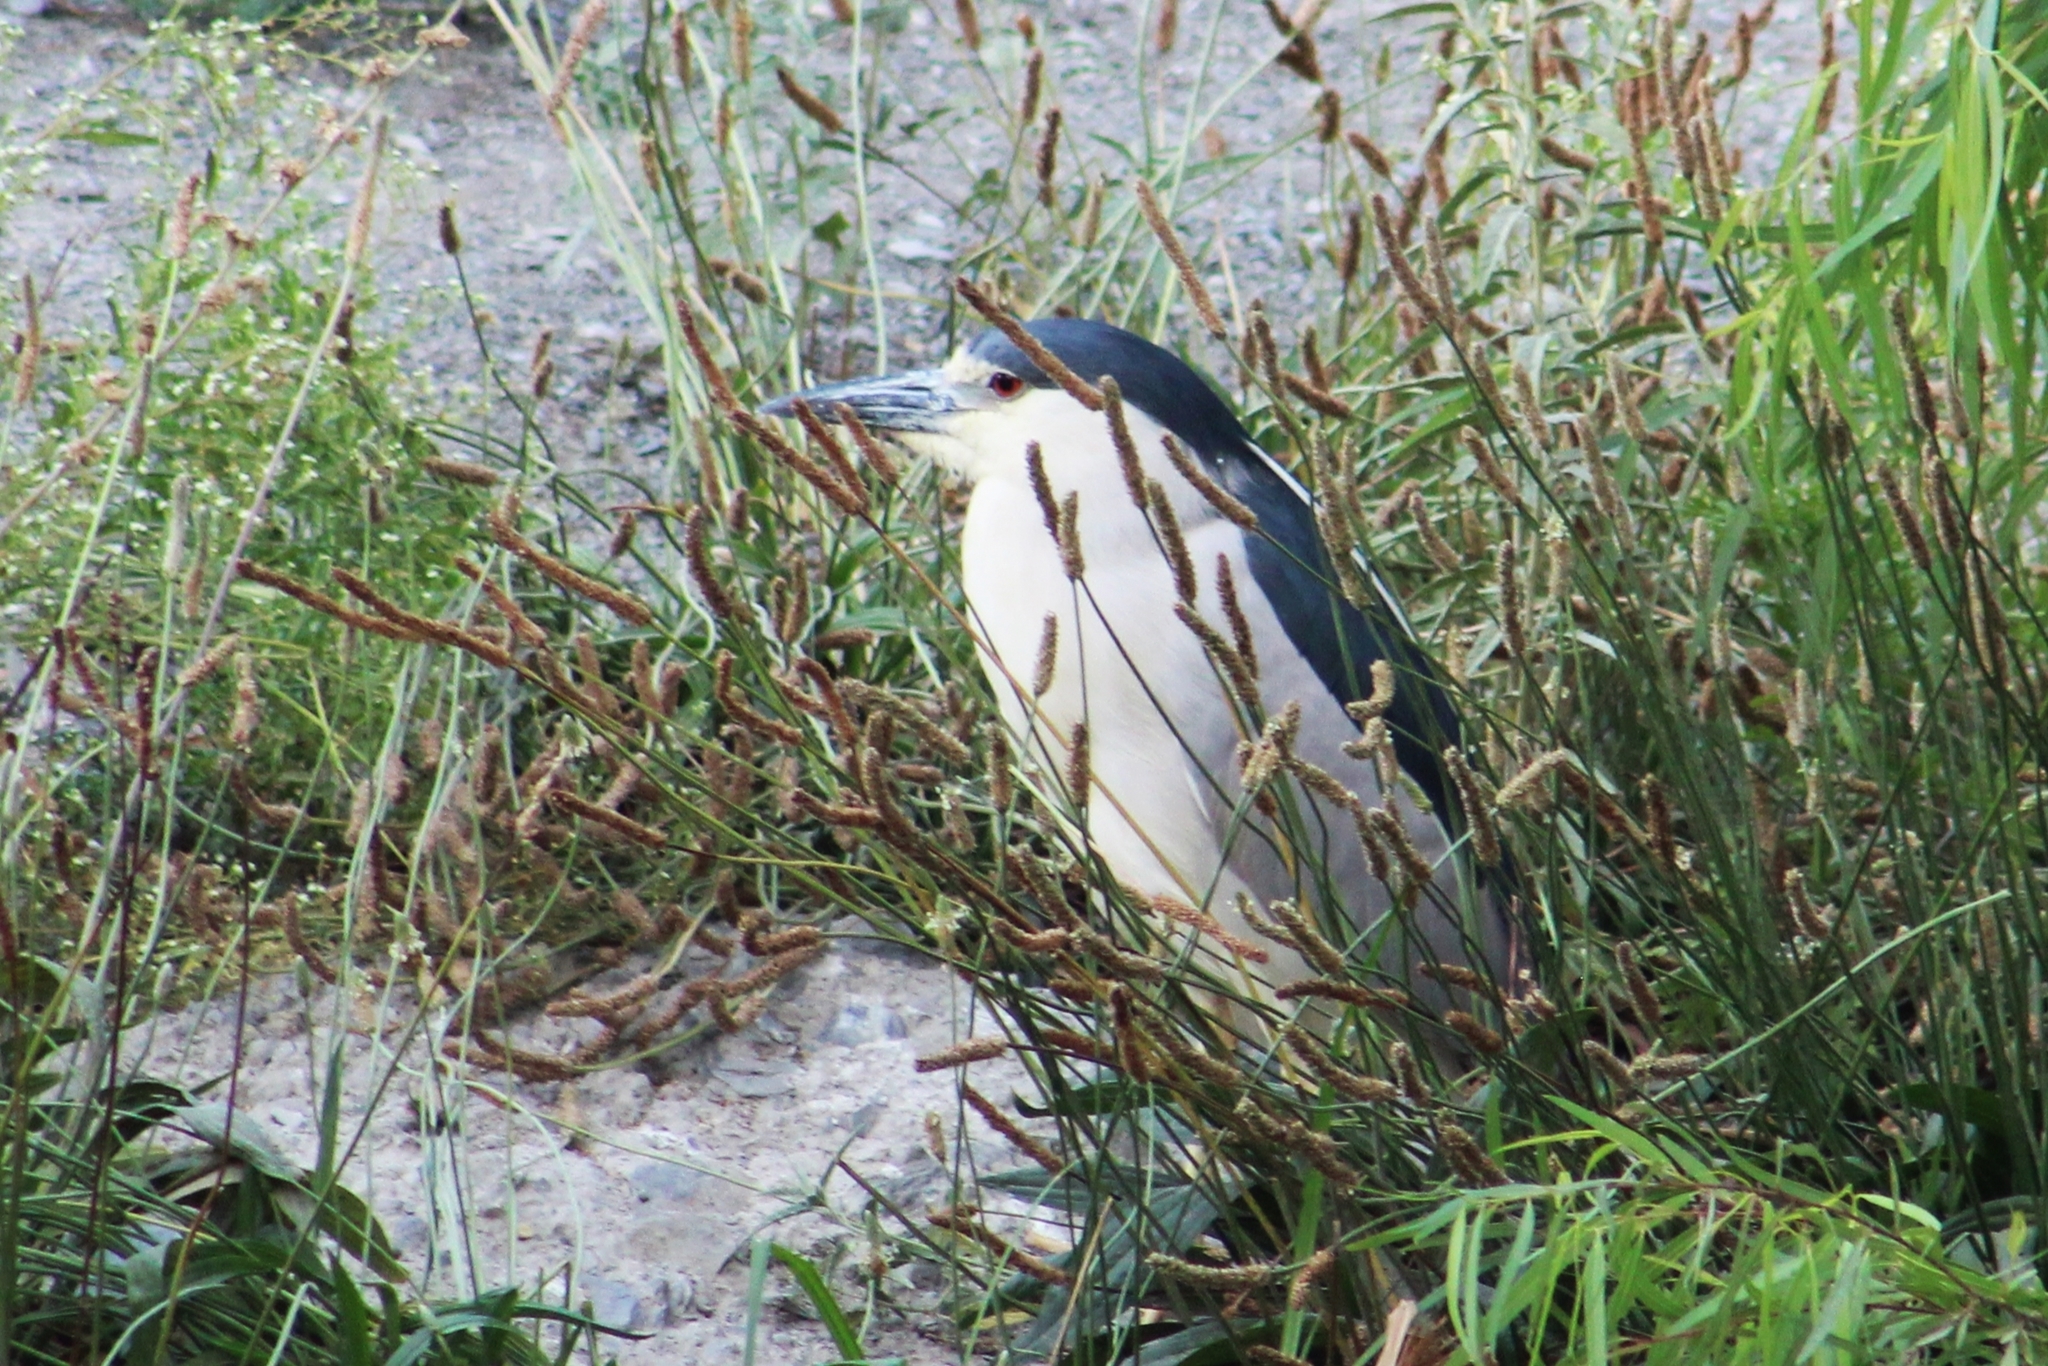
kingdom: Animalia
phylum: Chordata
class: Aves
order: Pelecaniformes
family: Ardeidae
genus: Nycticorax
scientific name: Nycticorax nycticorax
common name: Black-crowned night heron
